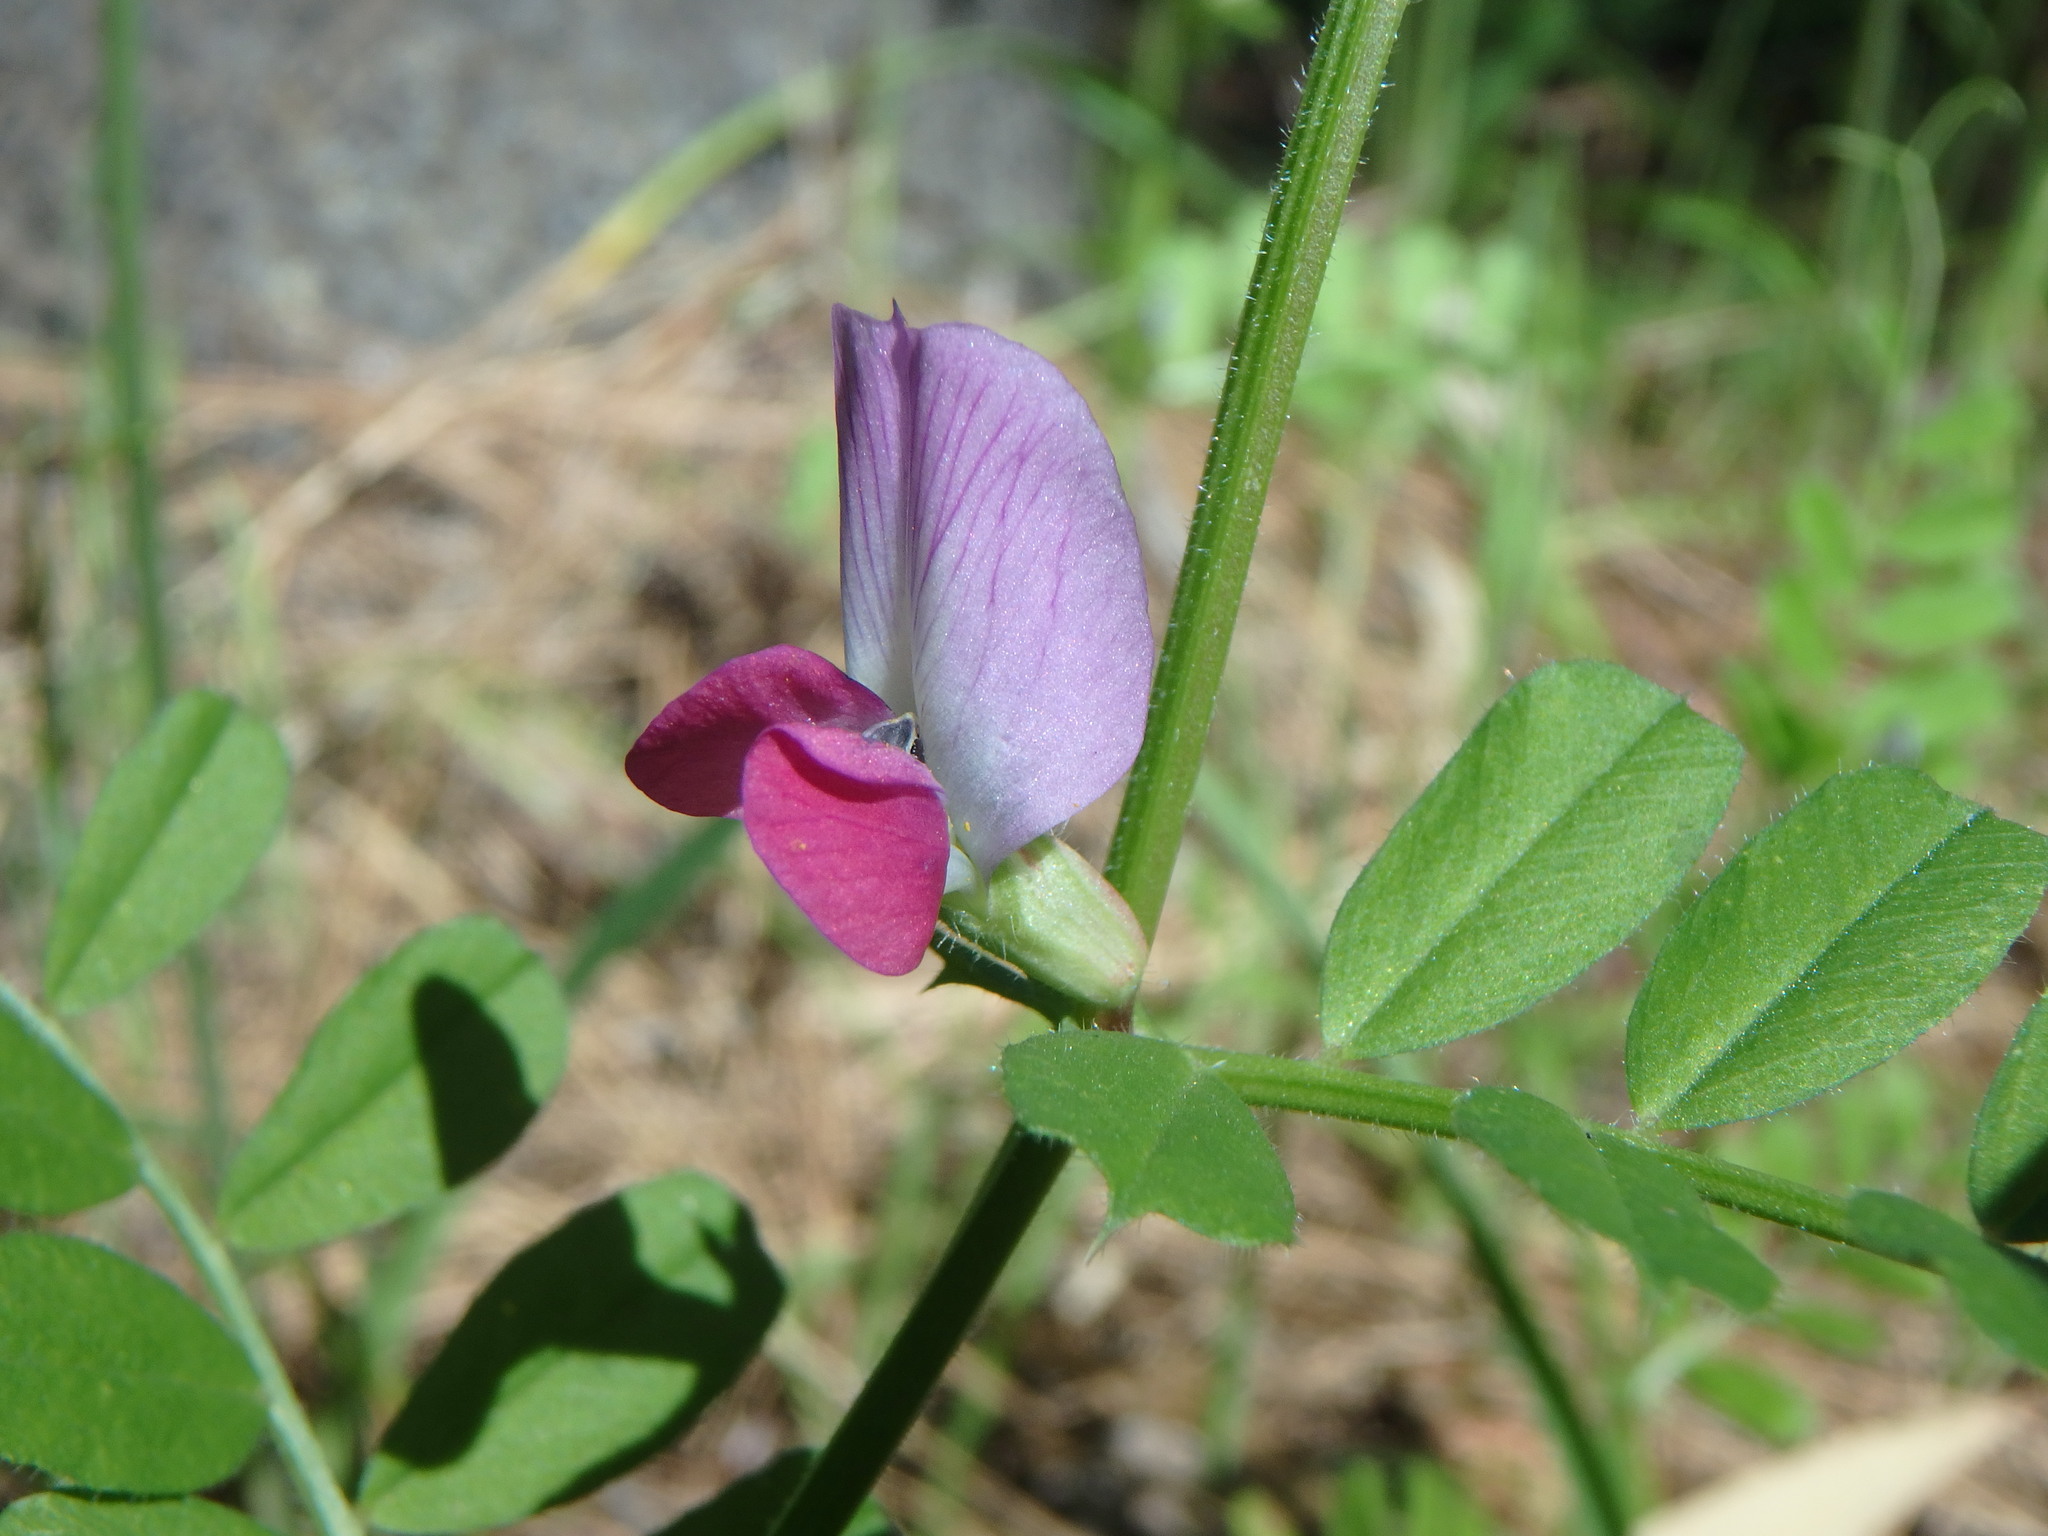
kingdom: Plantae
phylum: Tracheophyta
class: Magnoliopsida
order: Fabales
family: Fabaceae
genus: Vicia
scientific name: Vicia sativa
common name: Garden vetch
